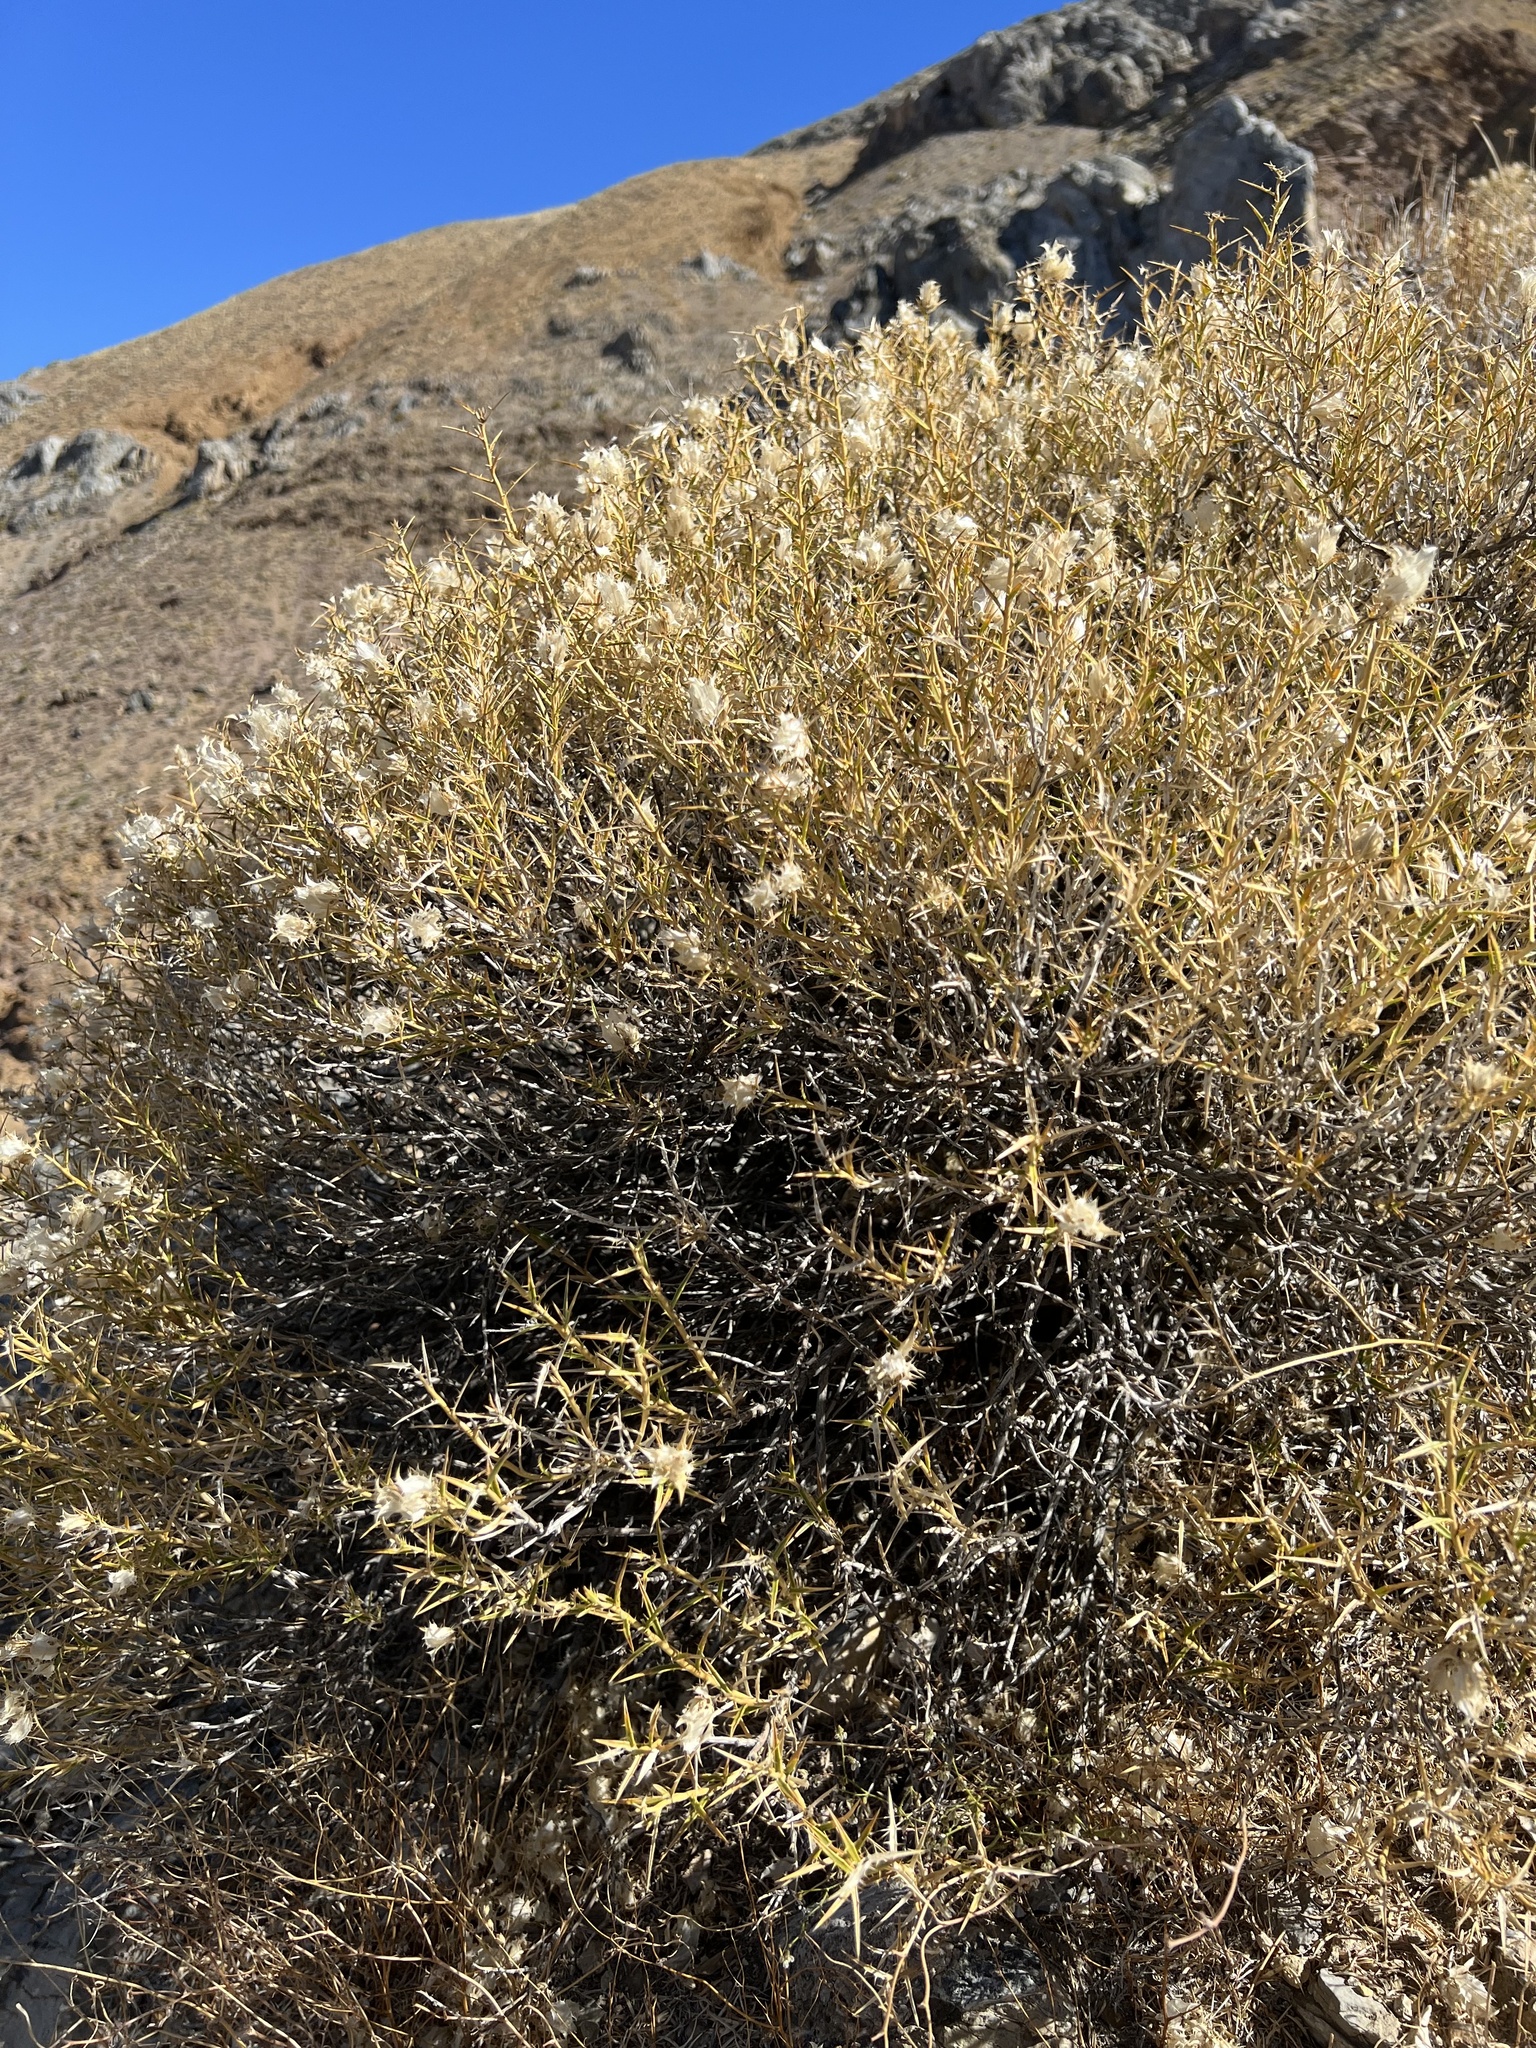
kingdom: Plantae
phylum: Tracheophyta
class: Magnoliopsida
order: Asterales
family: Asteraceae
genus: Hecastocleis
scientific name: Hecastocleis shockleyi
